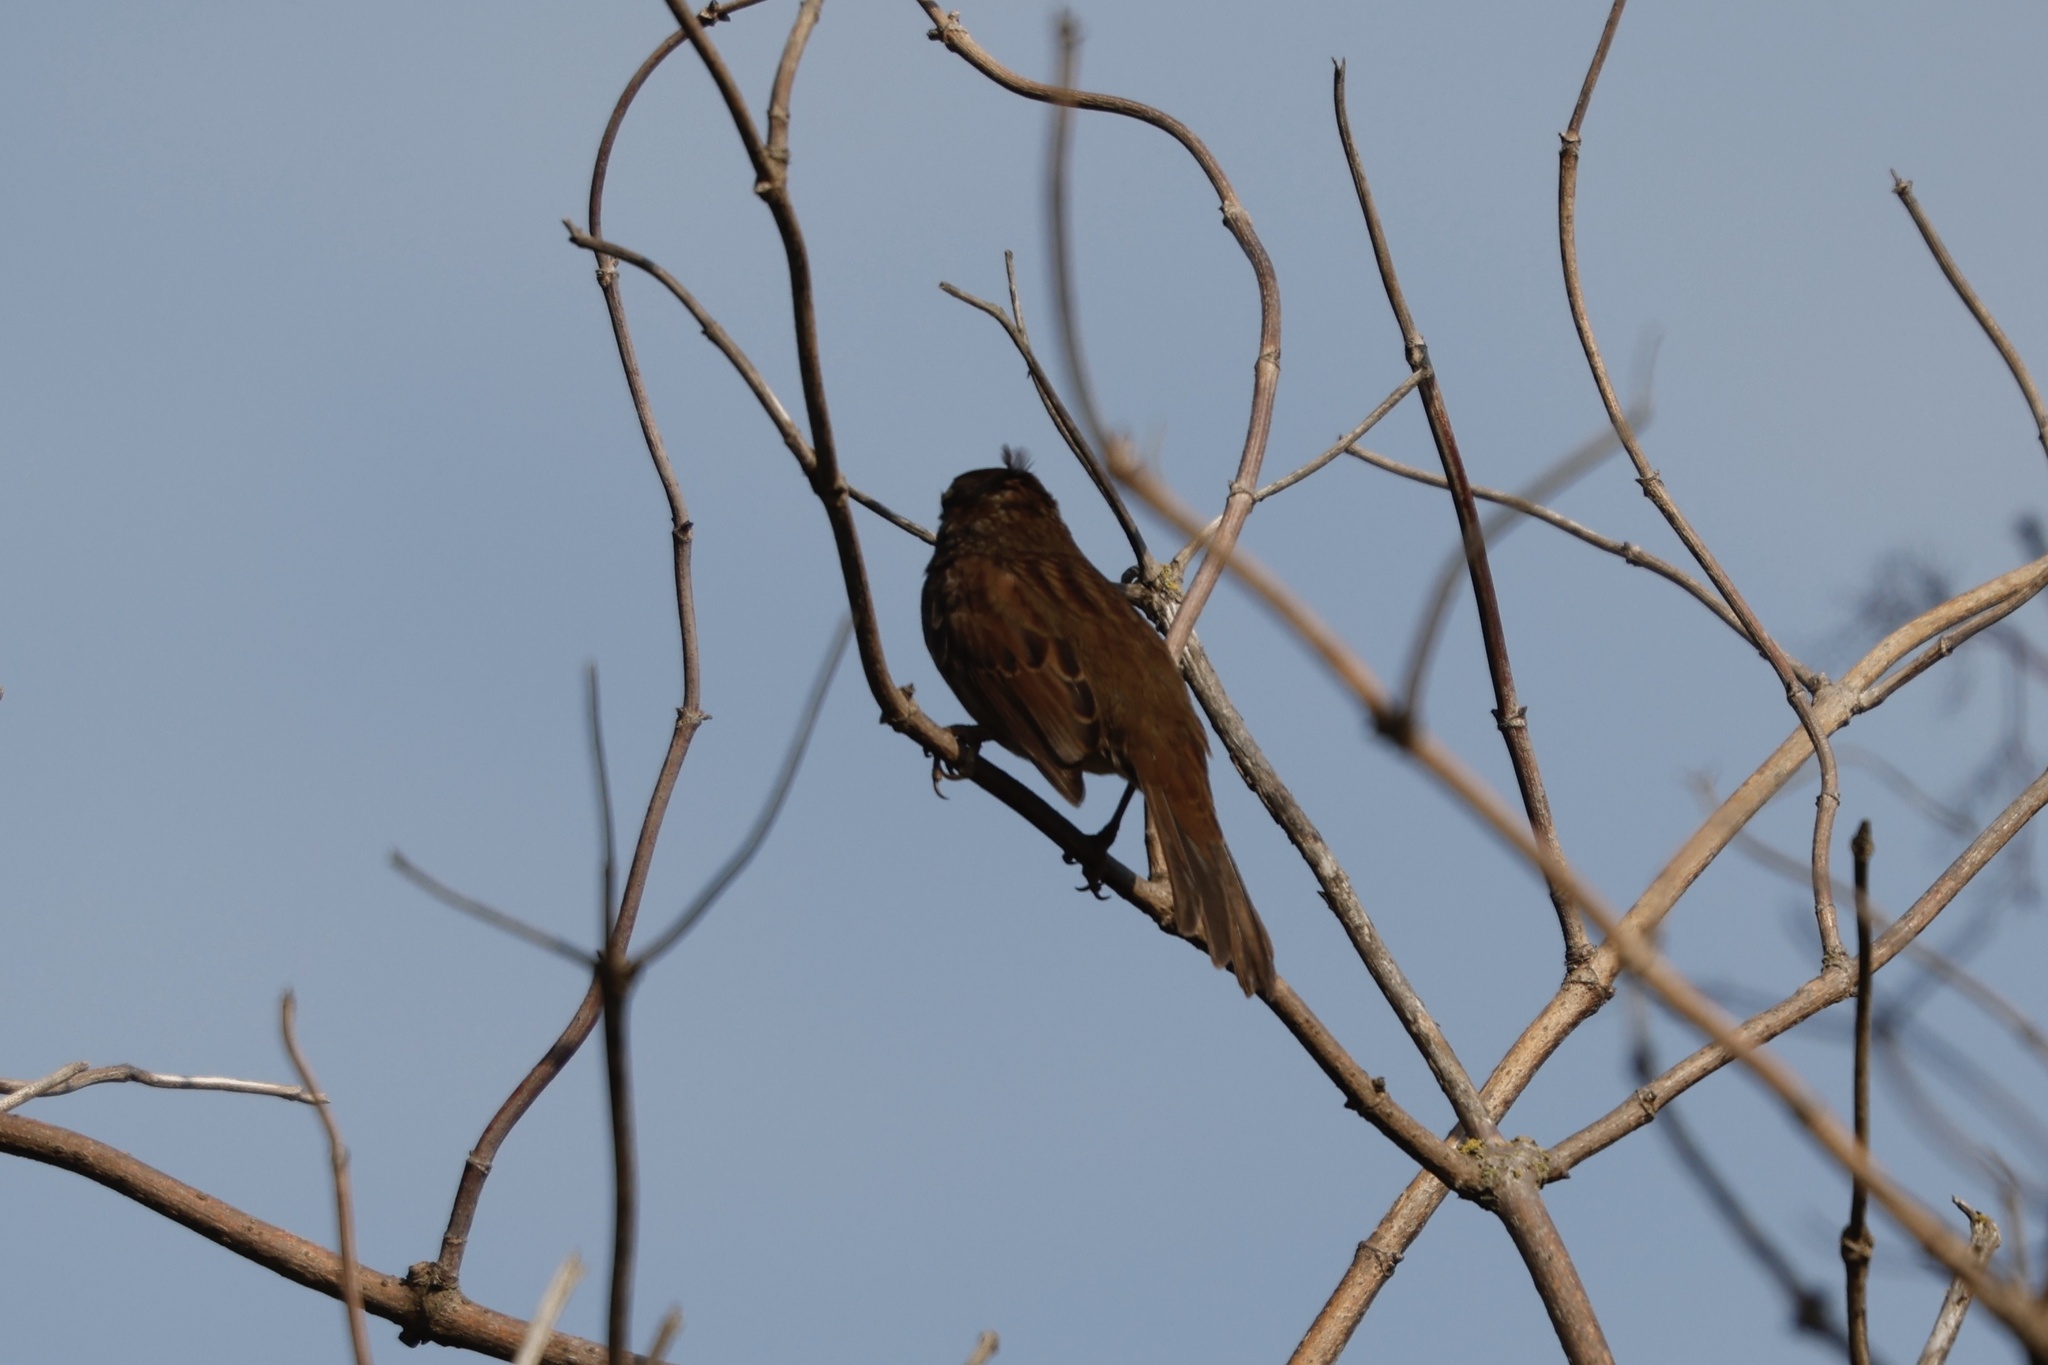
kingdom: Animalia
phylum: Chordata
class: Aves
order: Passeriformes
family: Passerellidae
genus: Melospiza
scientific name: Melospiza melodia
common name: Song sparrow
